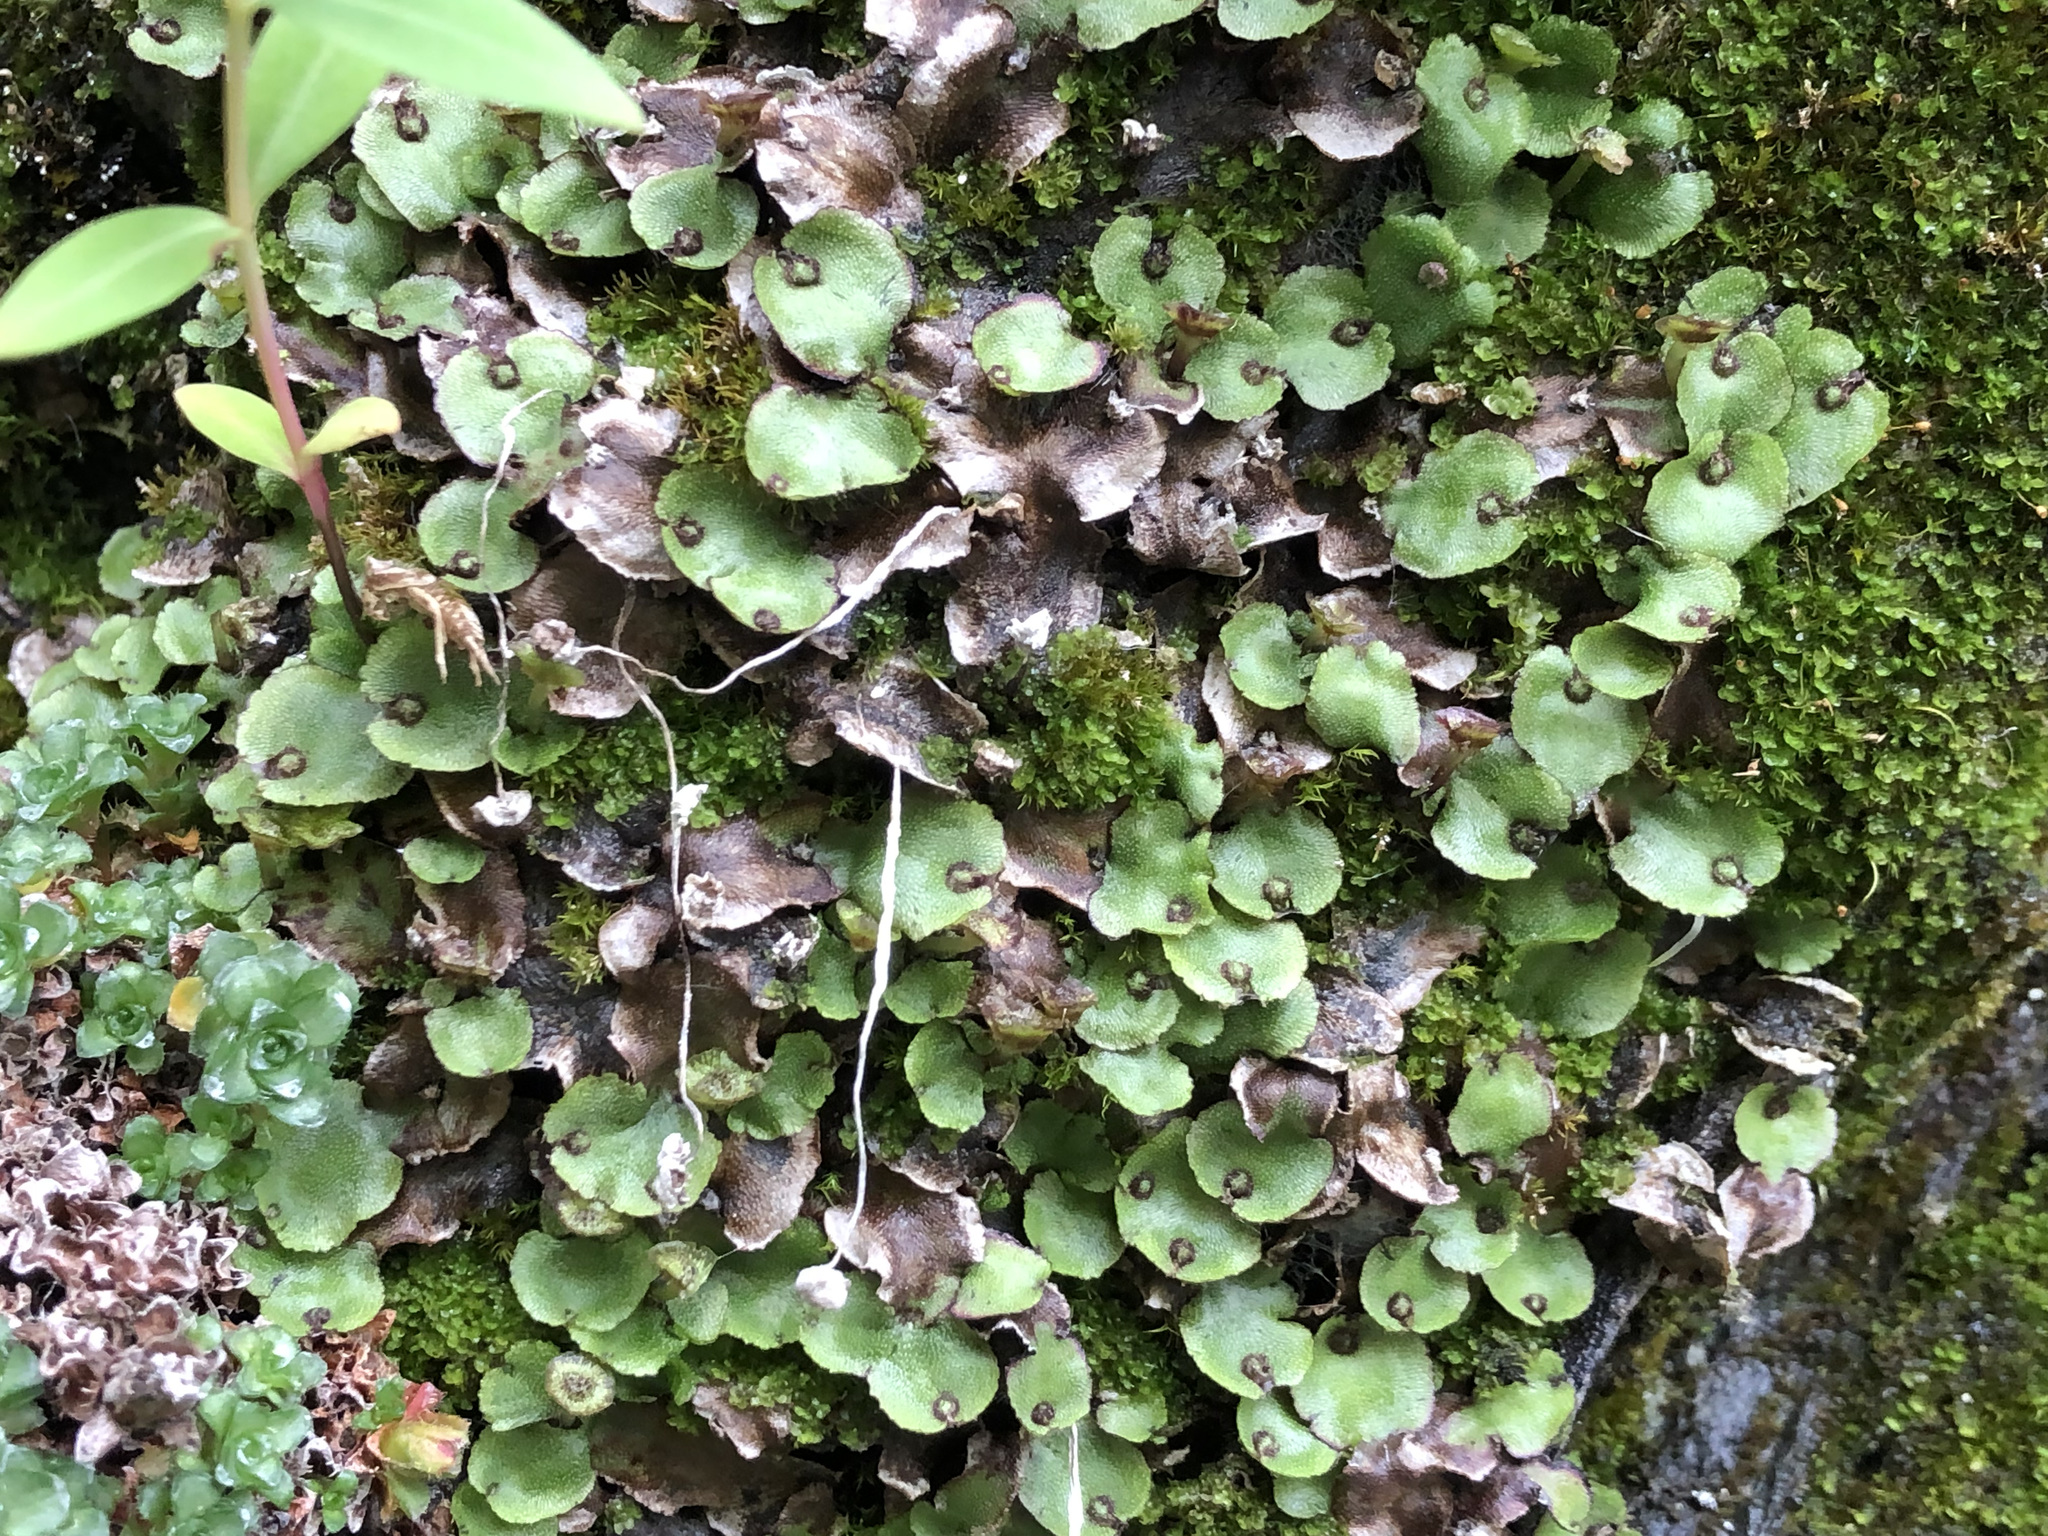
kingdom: Plantae
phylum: Marchantiophyta
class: Marchantiopsida
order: Marchantiales
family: Marchantiaceae
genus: Marchantia
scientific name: Marchantia quadrata
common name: Narrow mushroom-headed liverwort
